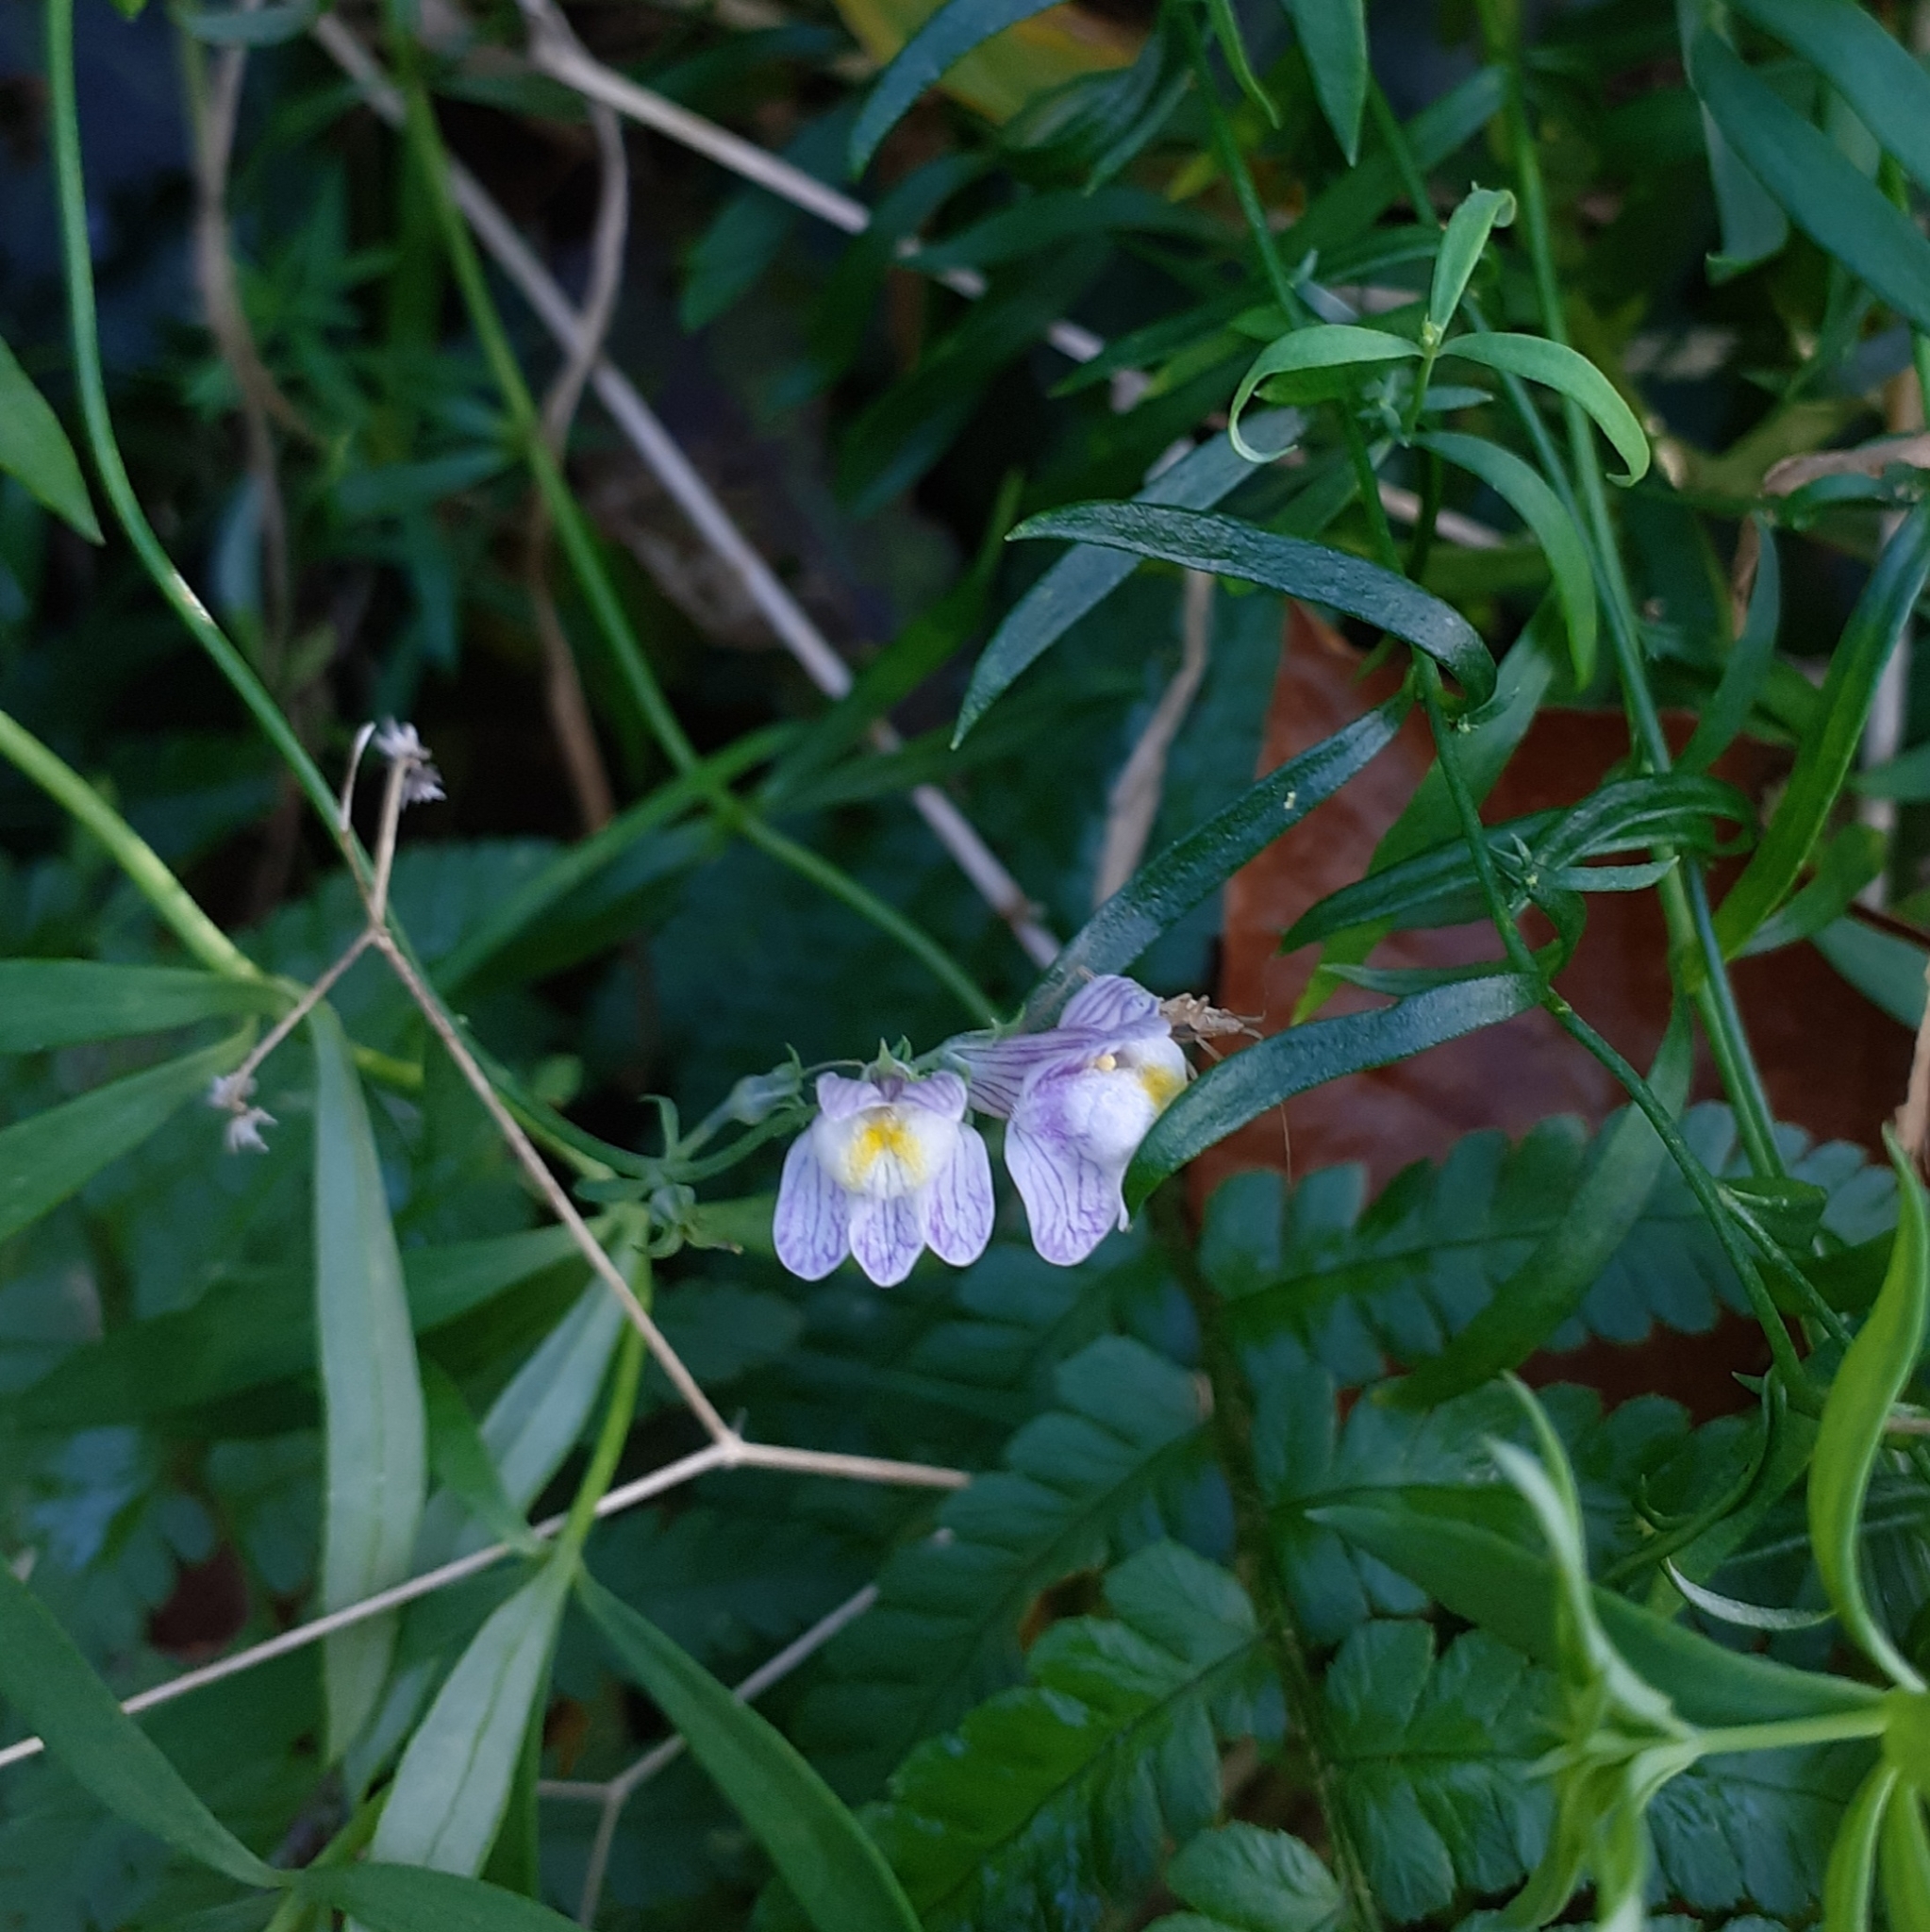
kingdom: Plantae
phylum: Tracheophyta
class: Magnoliopsida
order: Lamiales
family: Plantaginaceae
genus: Linaria
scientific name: Linaria repens
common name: Pale toadflax
